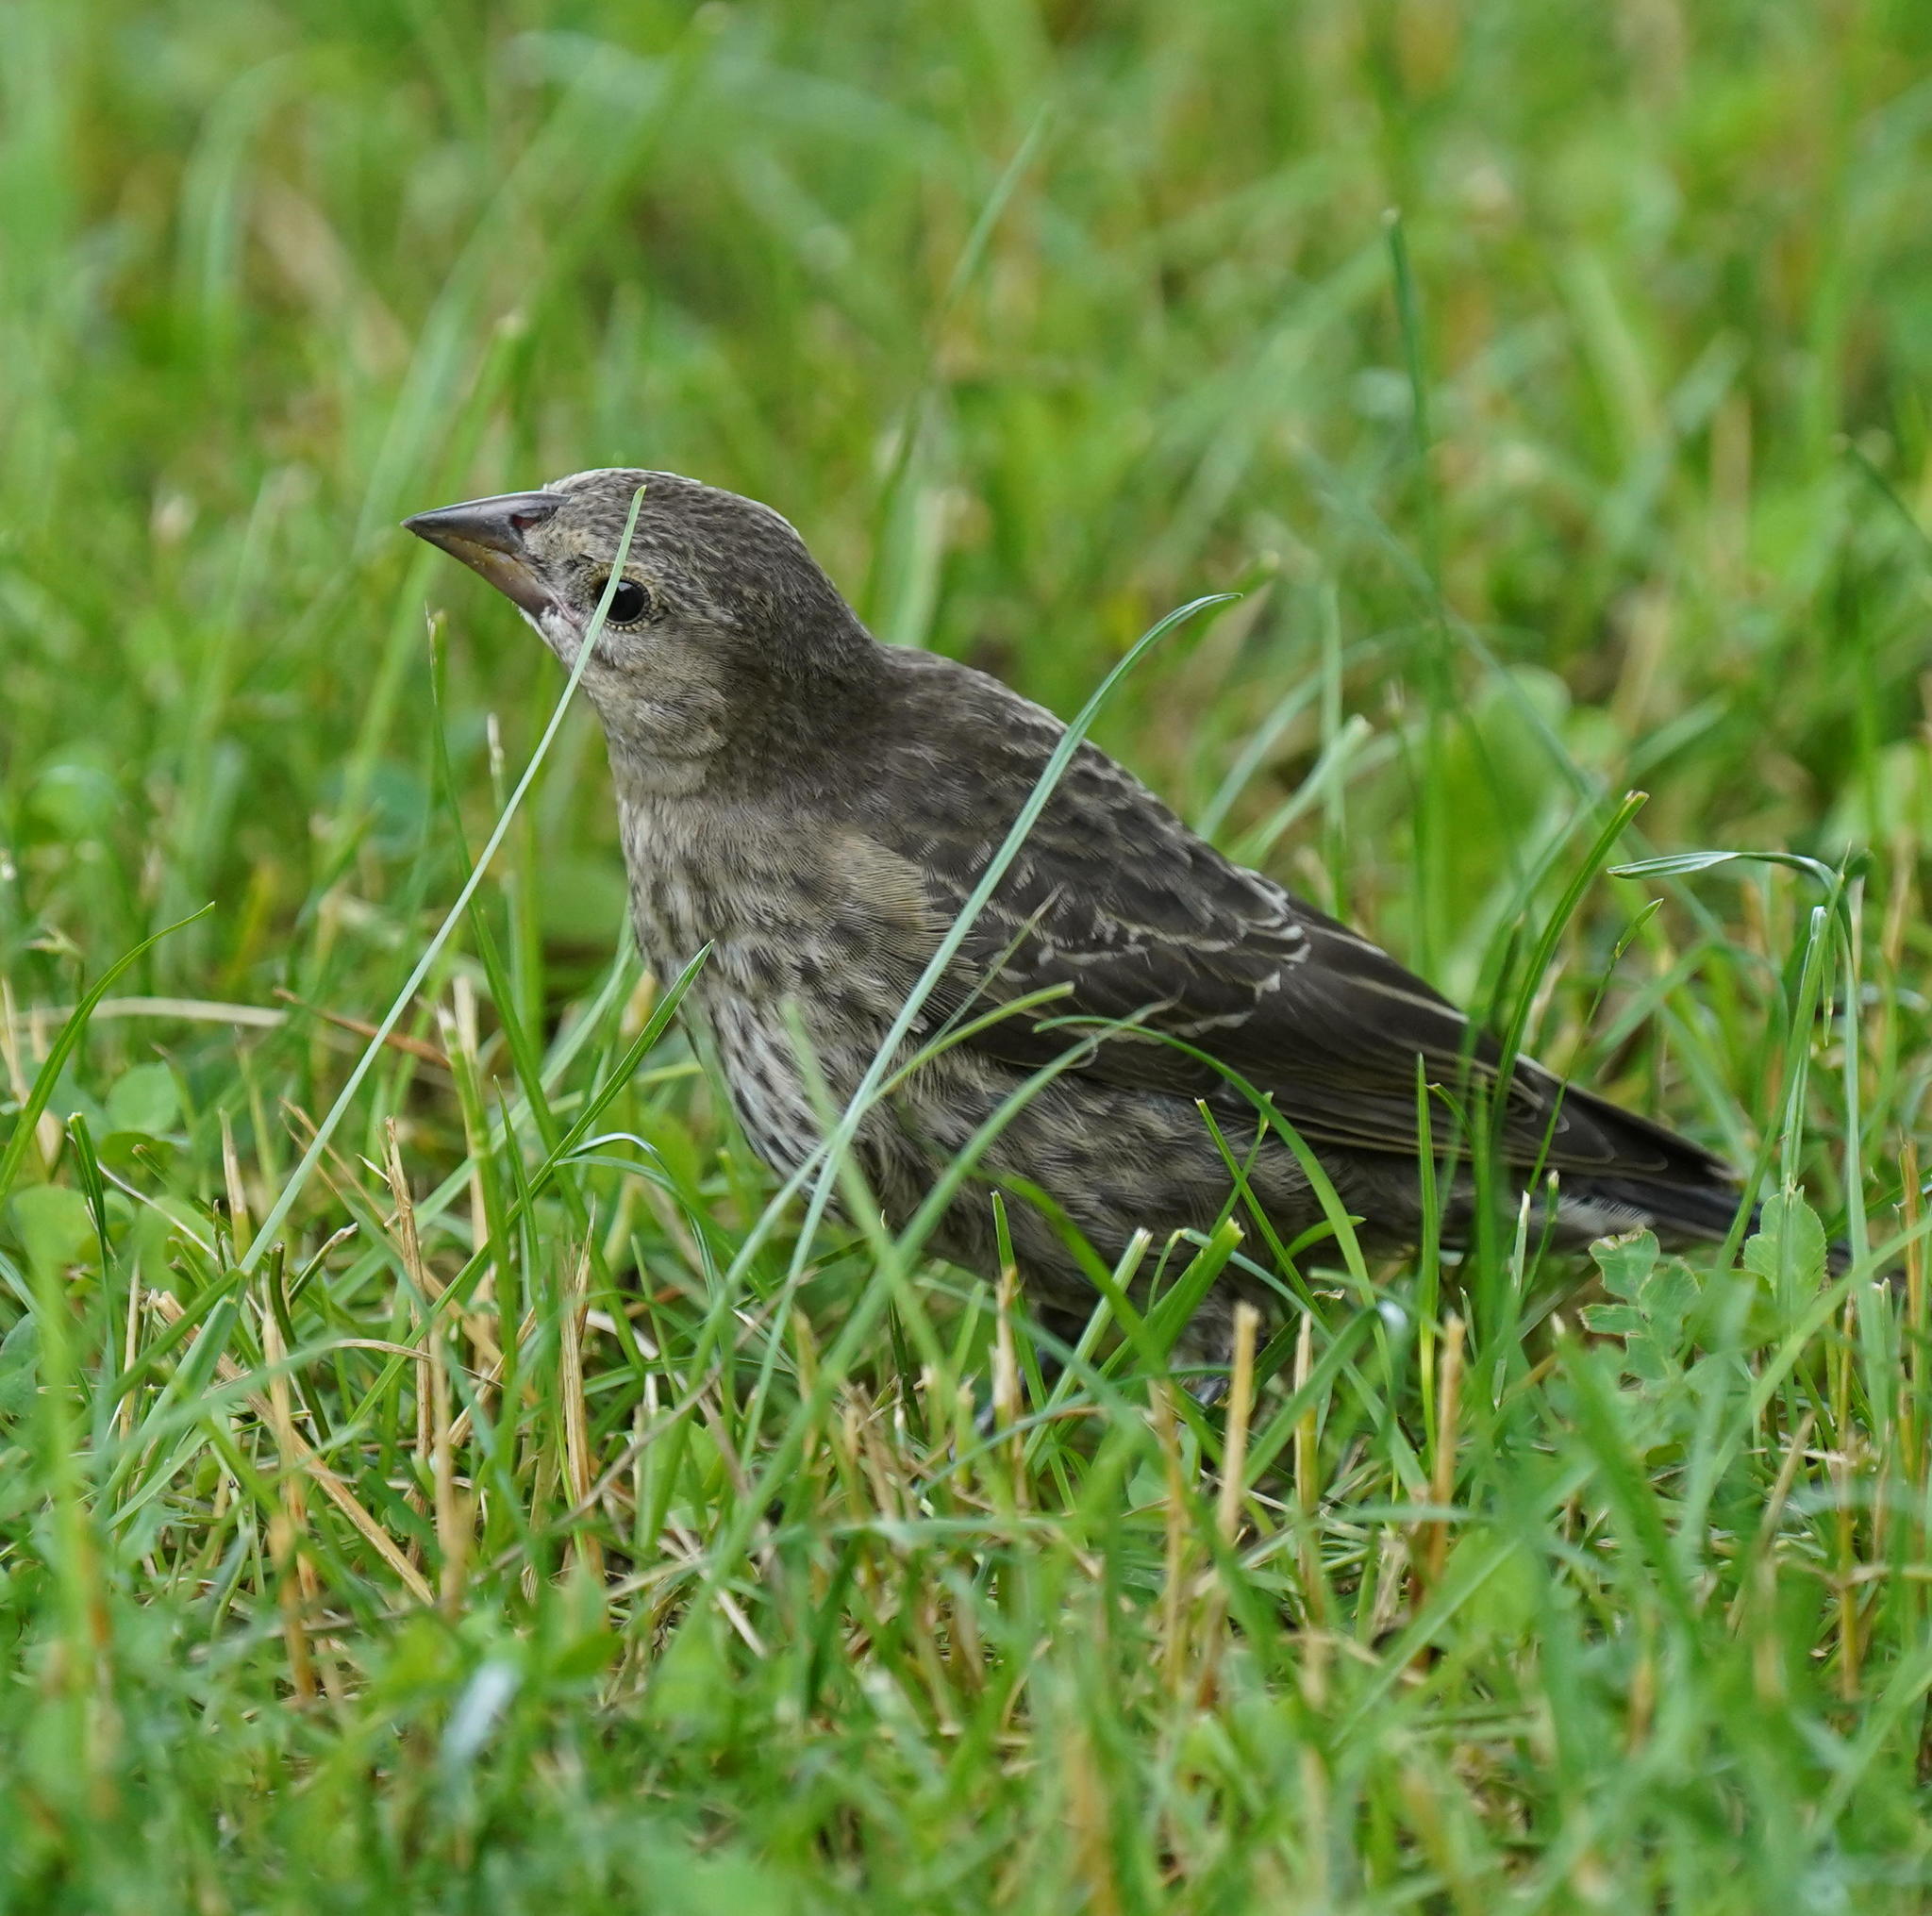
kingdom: Animalia
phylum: Chordata
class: Aves
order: Passeriformes
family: Icteridae
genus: Molothrus
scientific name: Molothrus ater
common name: Brown-headed cowbird
